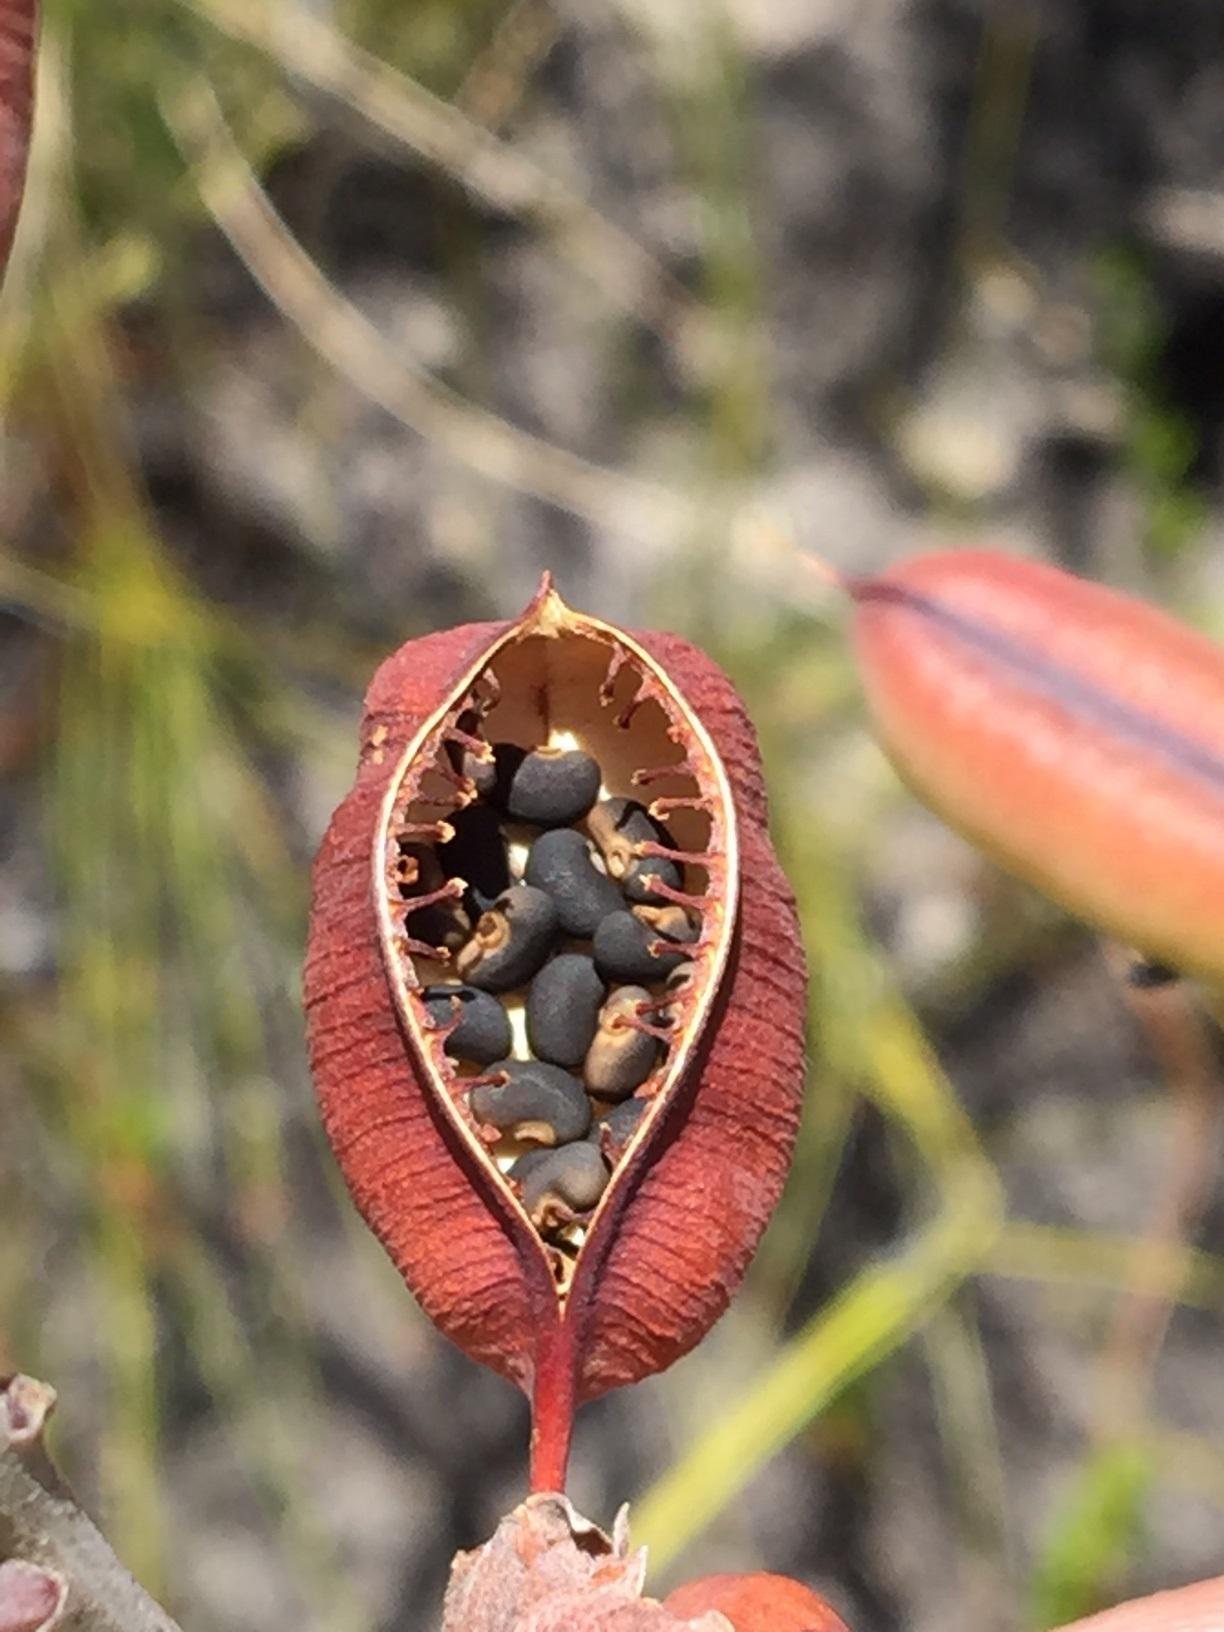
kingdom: Plantae
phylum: Tracheophyta
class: Magnoliopsida
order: Fabales
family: Fabaceae
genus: Hypocalyptus
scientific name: Hypocalyptus coluteoides
